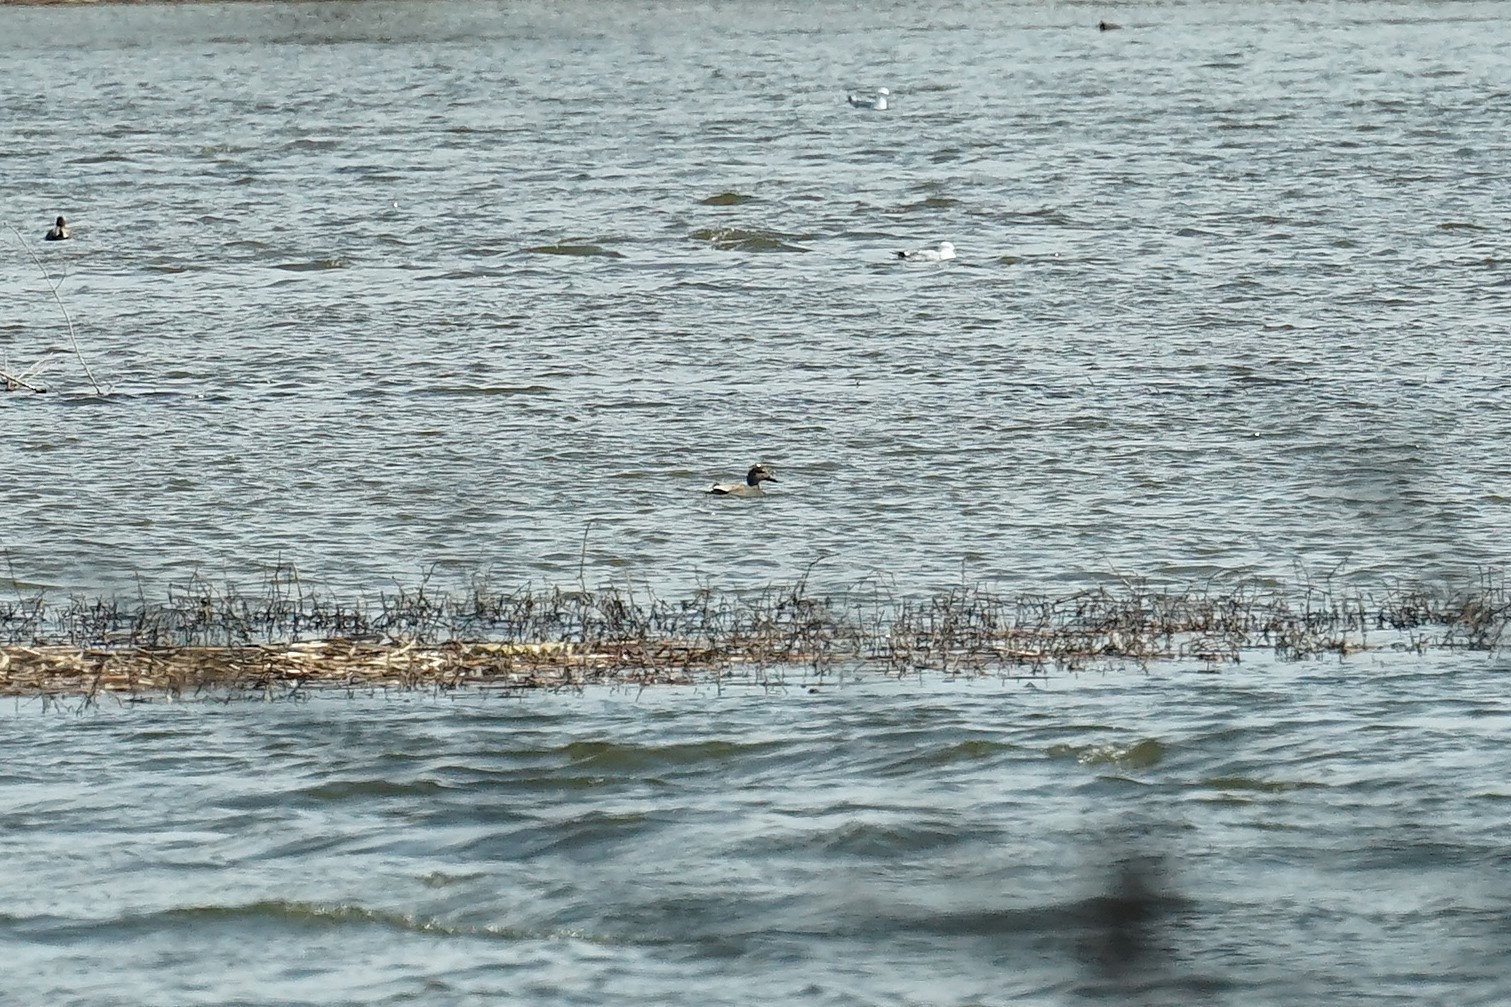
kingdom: Animalia
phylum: Chordata
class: Aves
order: Anseriformes
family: Anatidae
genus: Mareca
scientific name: Mareca strepera
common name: Gadwall
